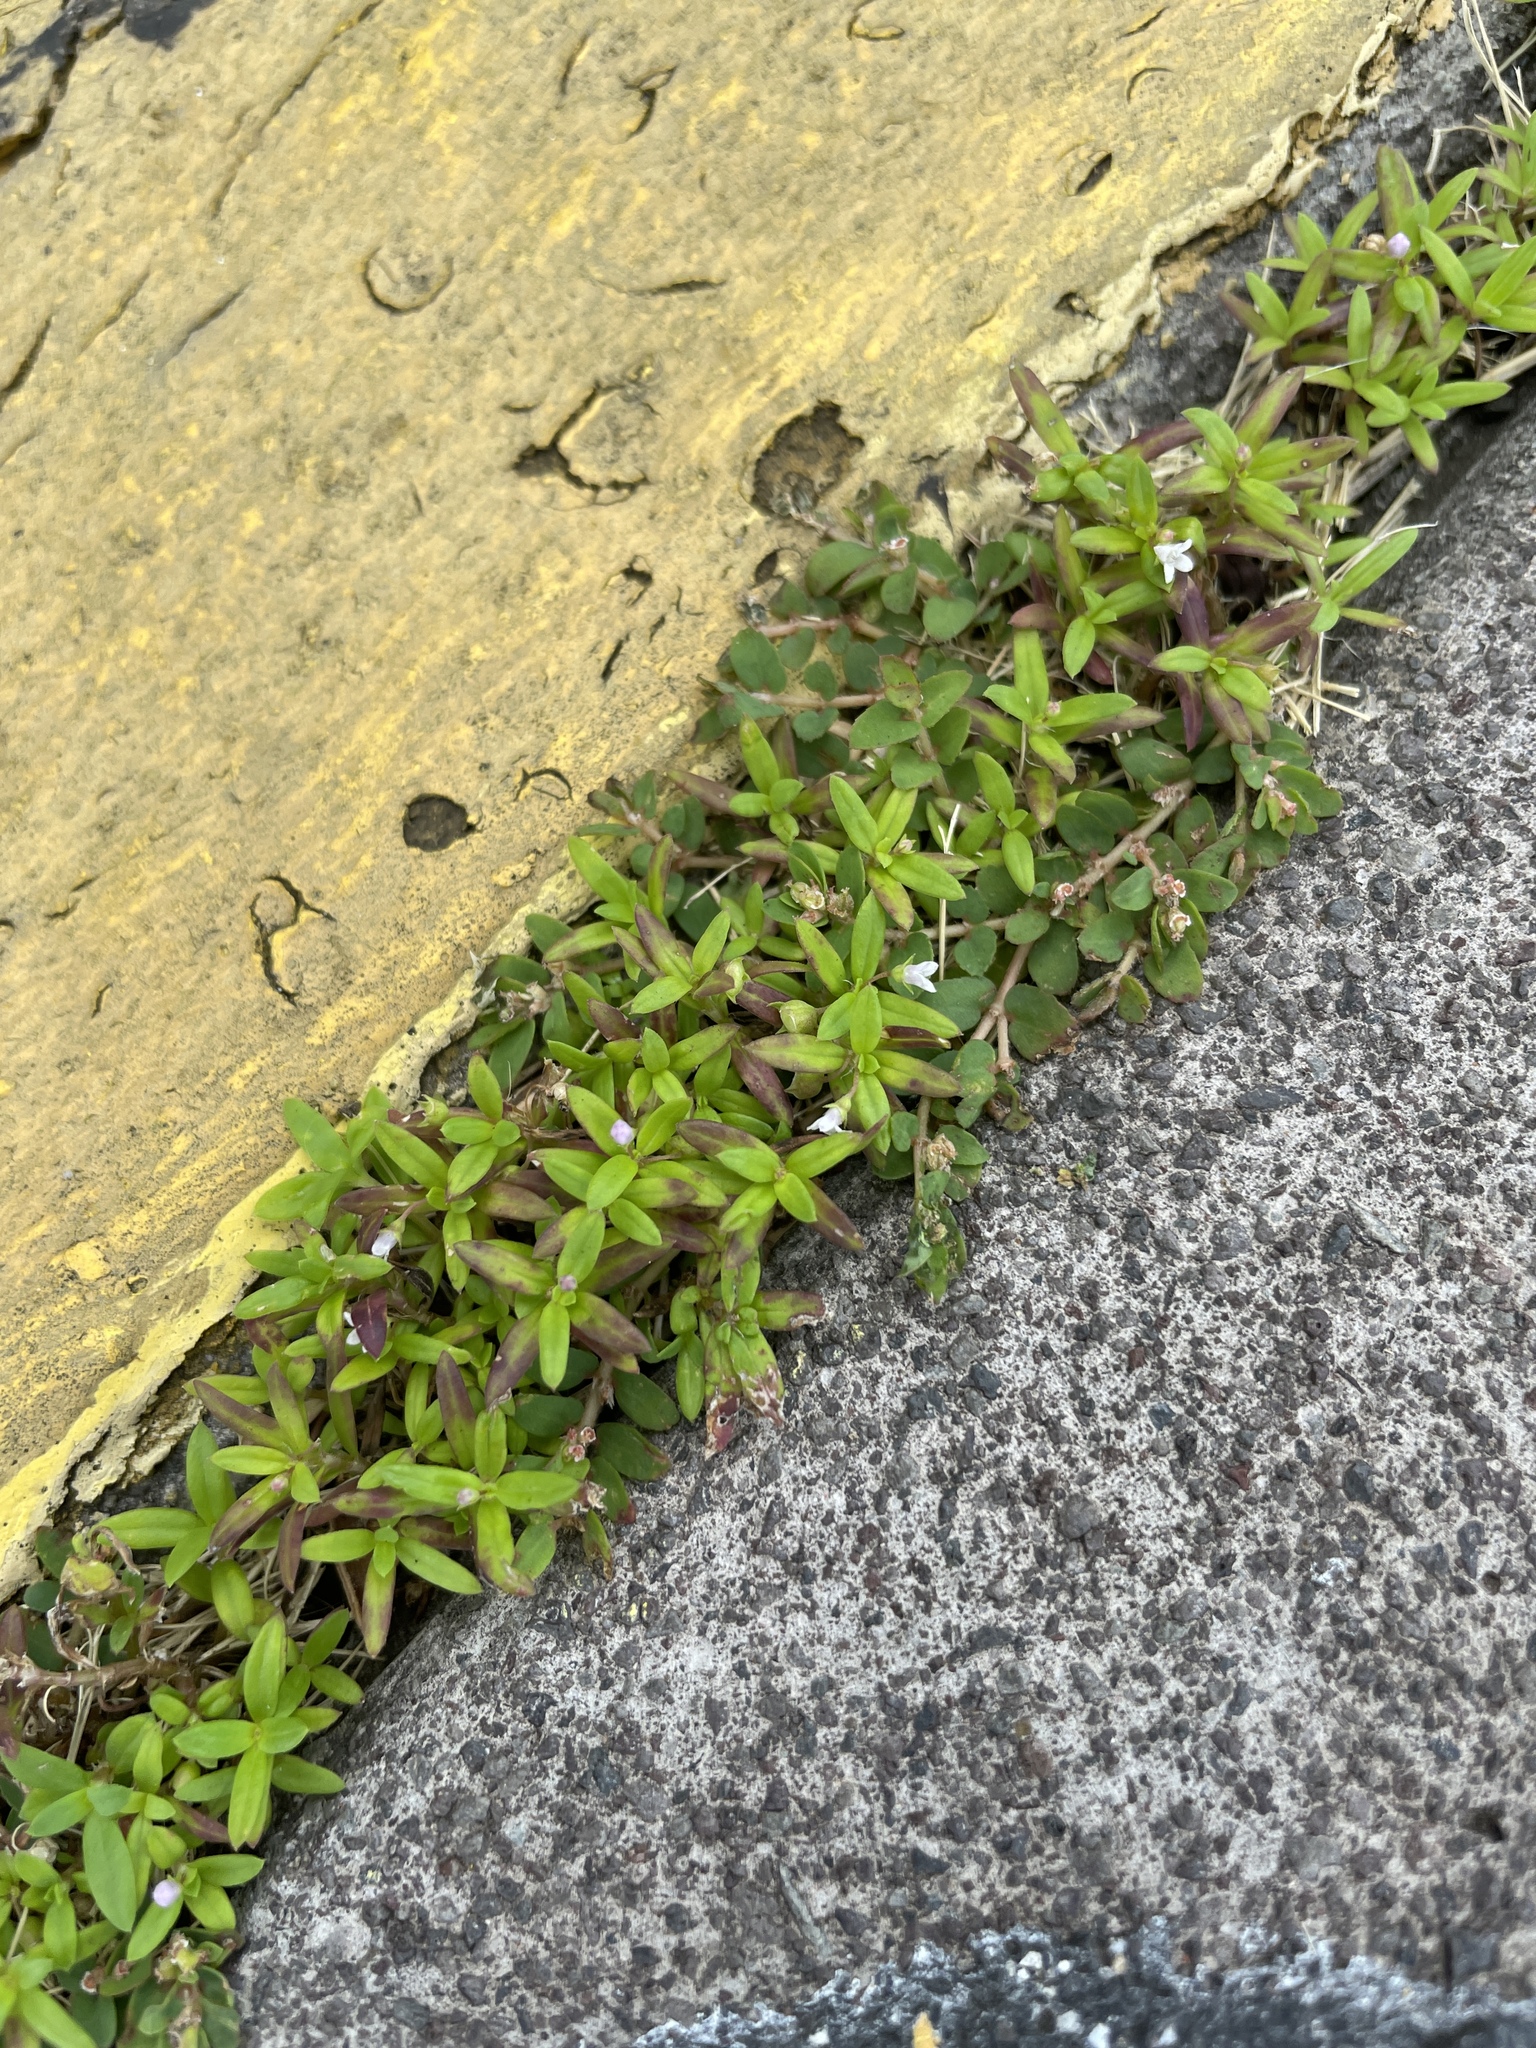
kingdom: Plantae
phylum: Tracheophyta
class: Magnoliopsida
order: Gentianales
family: Rubiaceae
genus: Oldenlandia
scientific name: Oldenlandia corymbosa
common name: Flat-top mille graines
